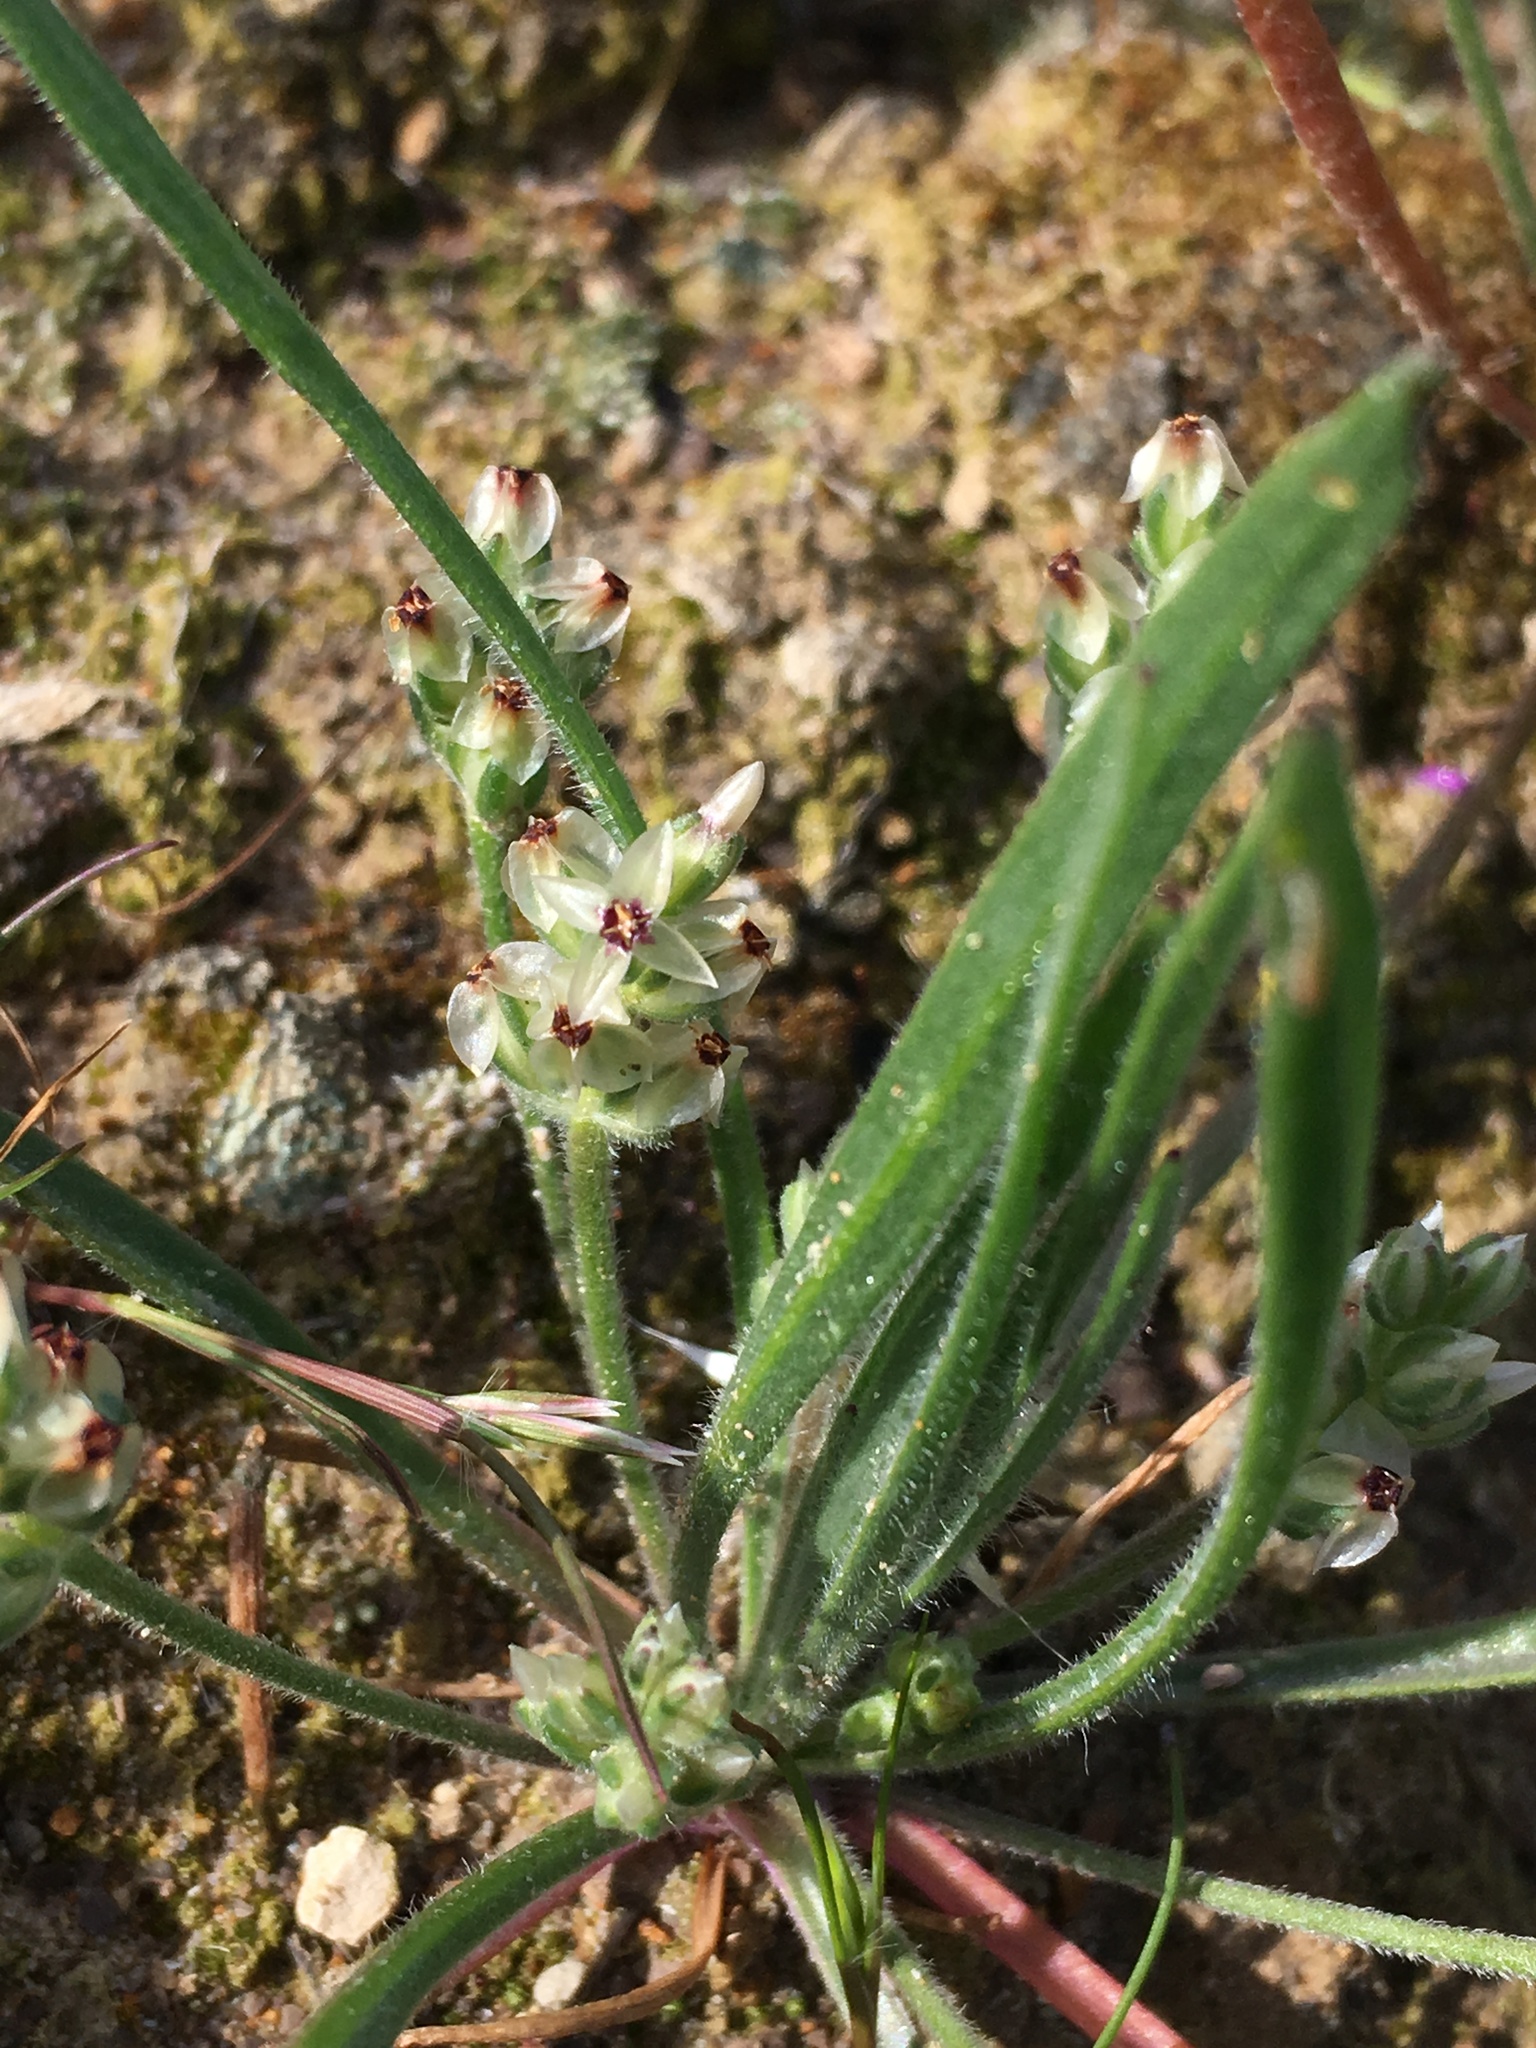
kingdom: Plantae
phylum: Tracheophyta
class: Magnoliopsida
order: Lamiales
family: Plantaginaceae
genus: Plantago
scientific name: Plantago ovata
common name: Blond plantain
